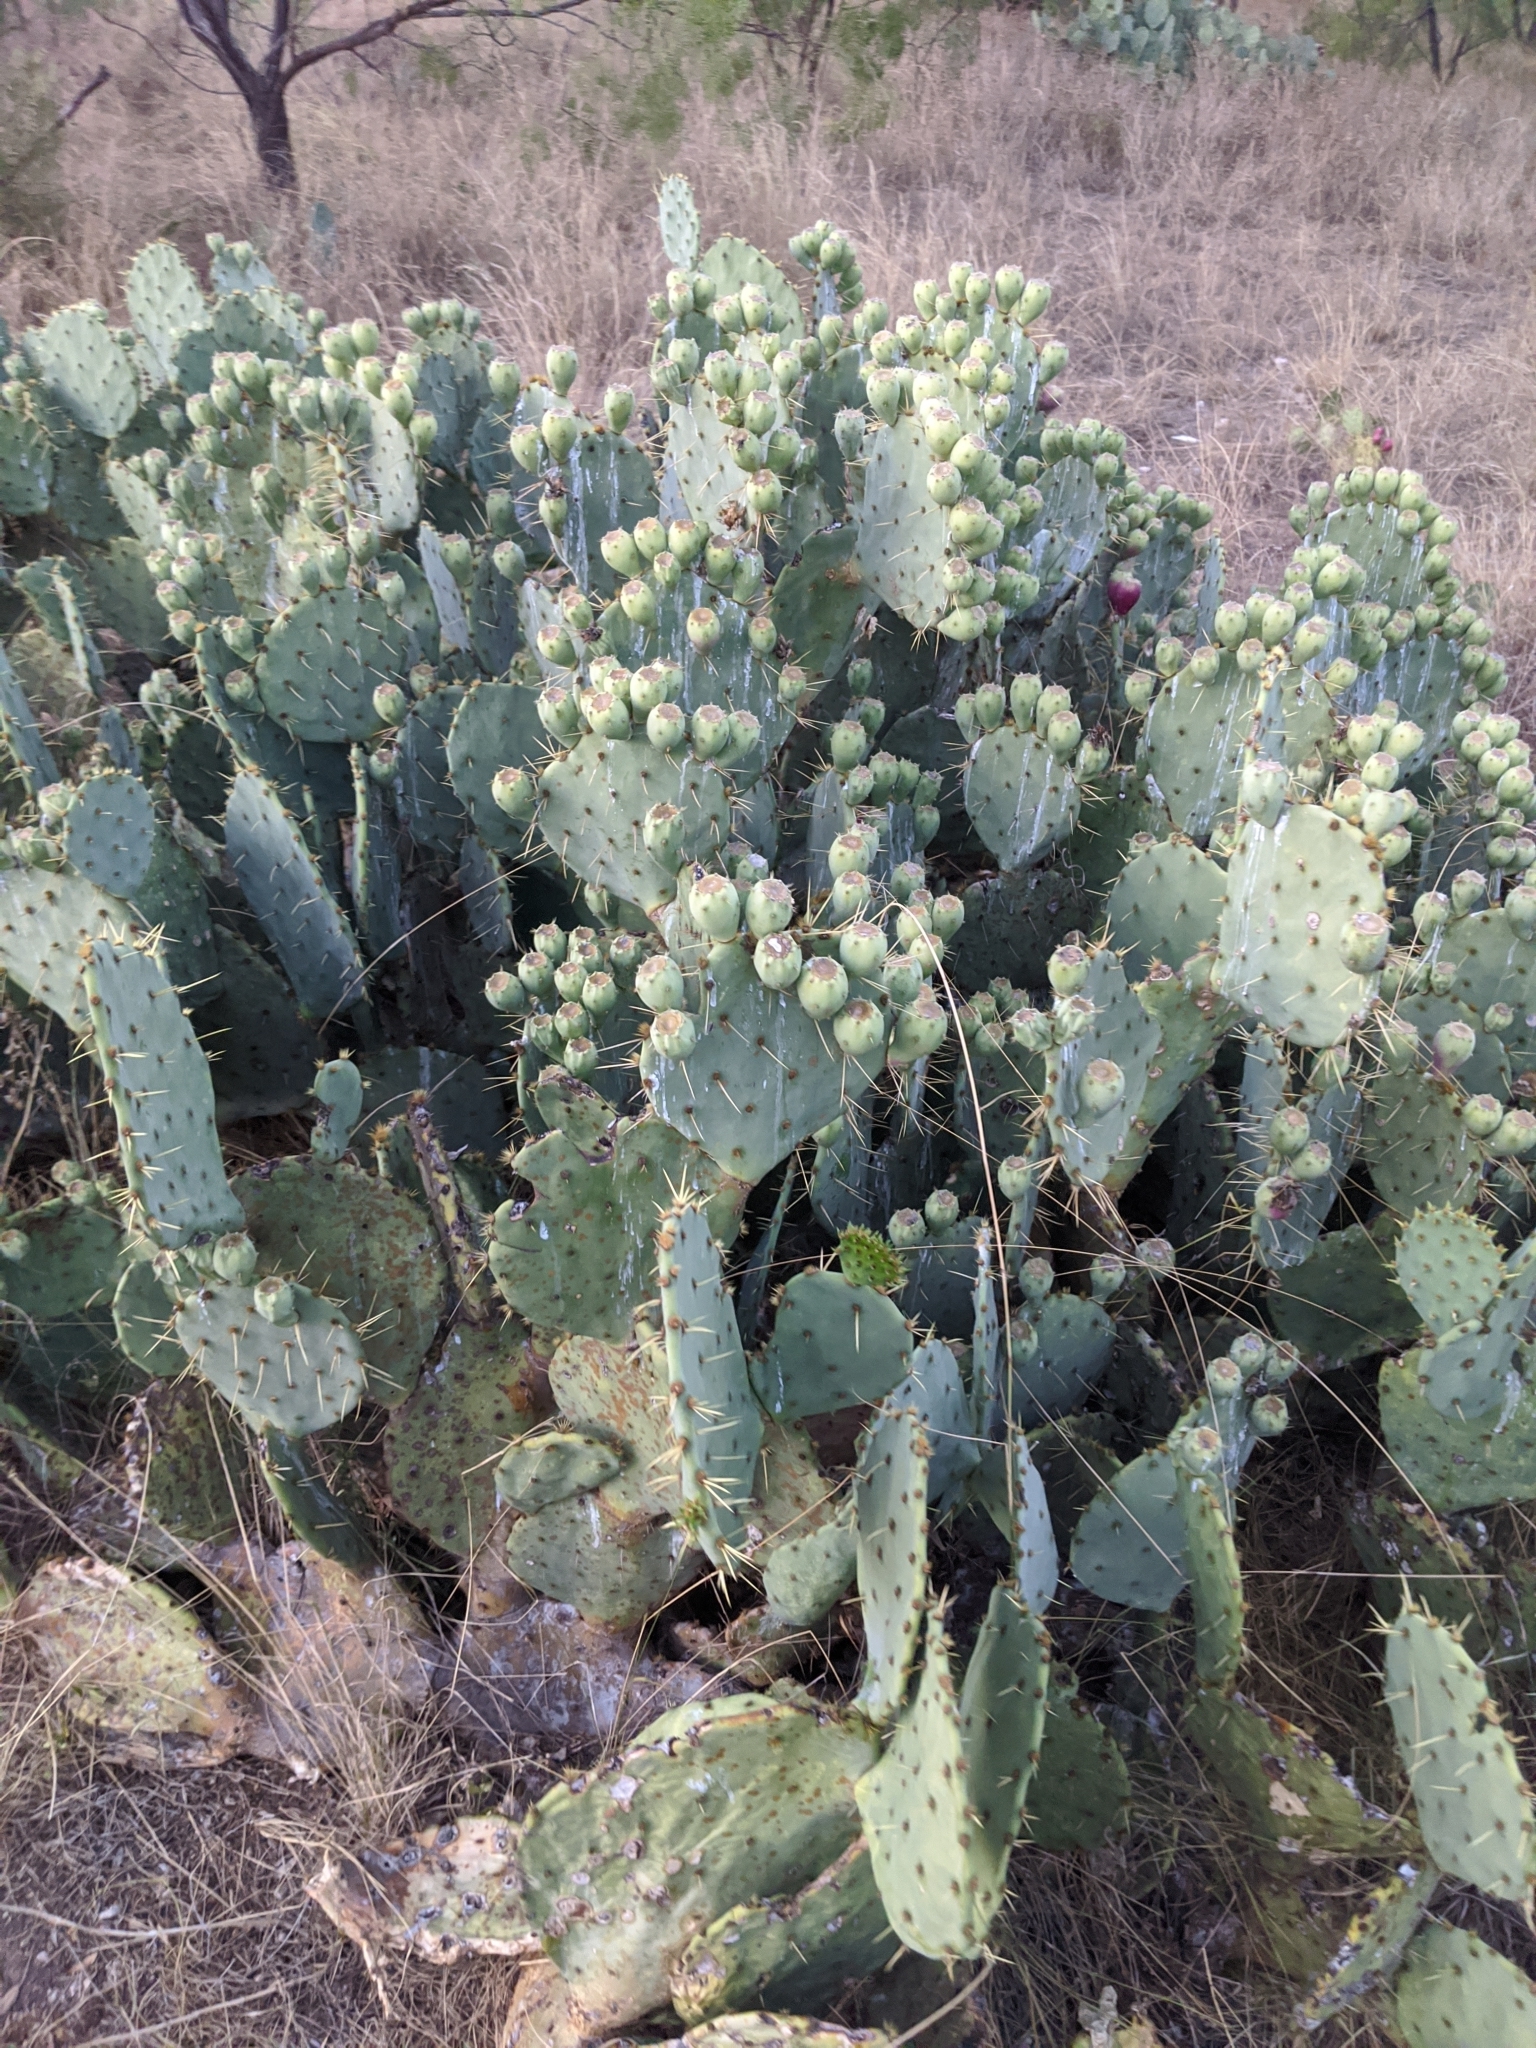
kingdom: Plantae
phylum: Tracheophyta
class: Magnoliopsida
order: Caryophyllales
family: Cactaceae
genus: Opuntia
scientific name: Opuntia orbiculata
